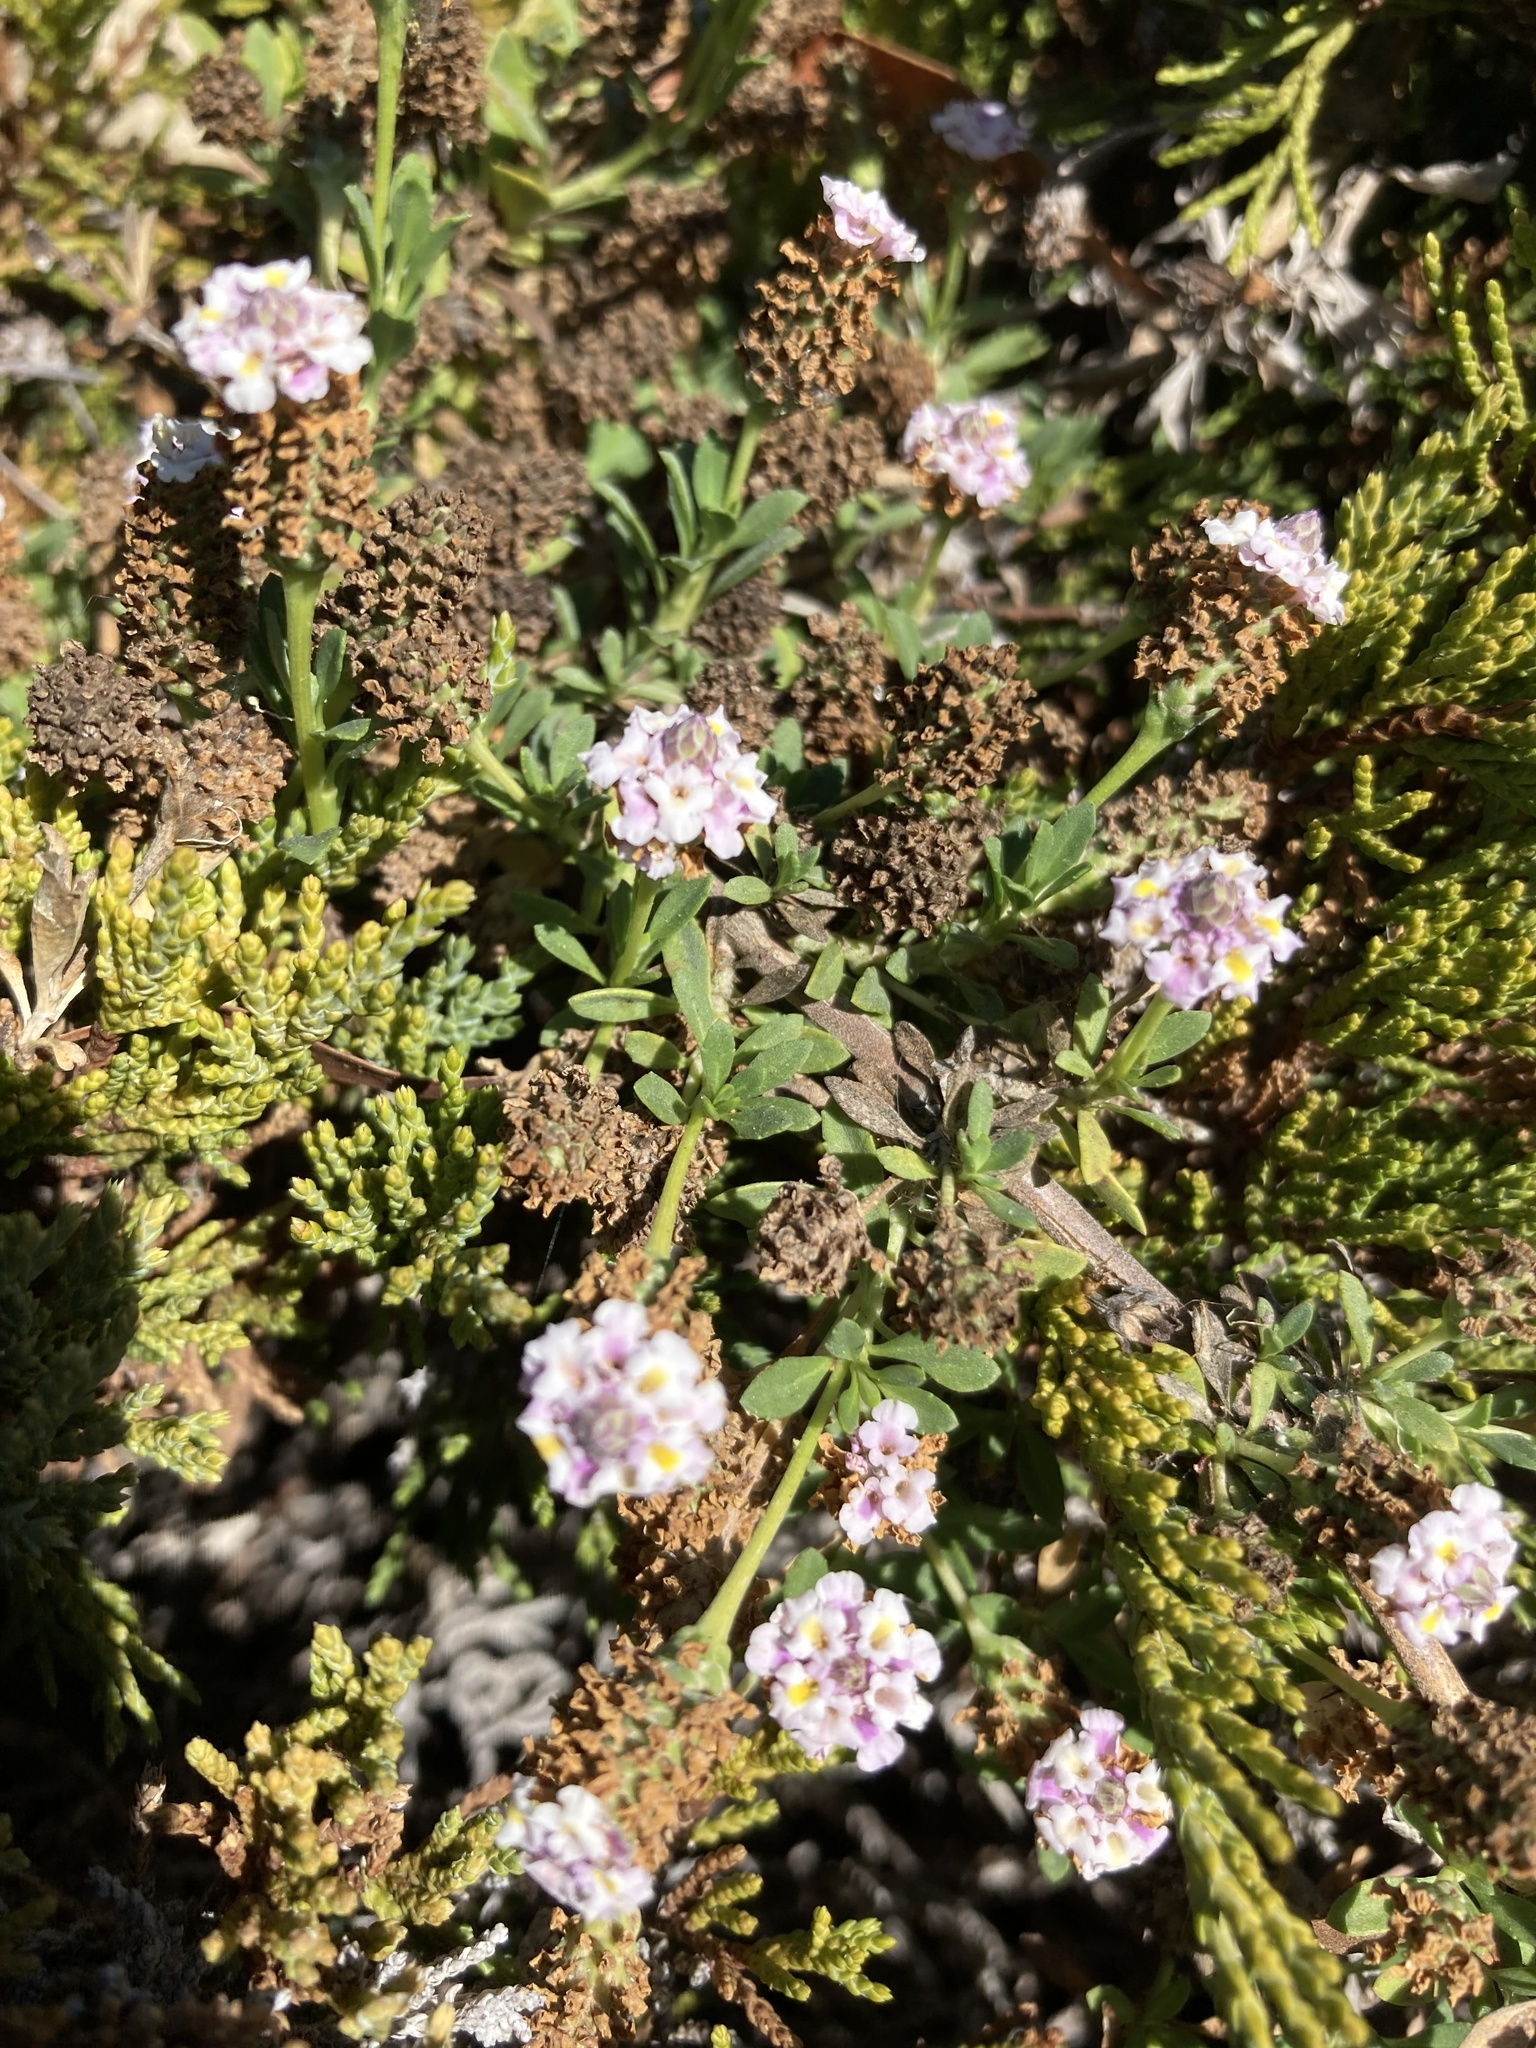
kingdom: Plantae
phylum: Tracheophyta
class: Magnoliopsida
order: Lamiales
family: Verbenaceae
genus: Phyla
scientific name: Phyla nodiflora
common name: Frogfruit
